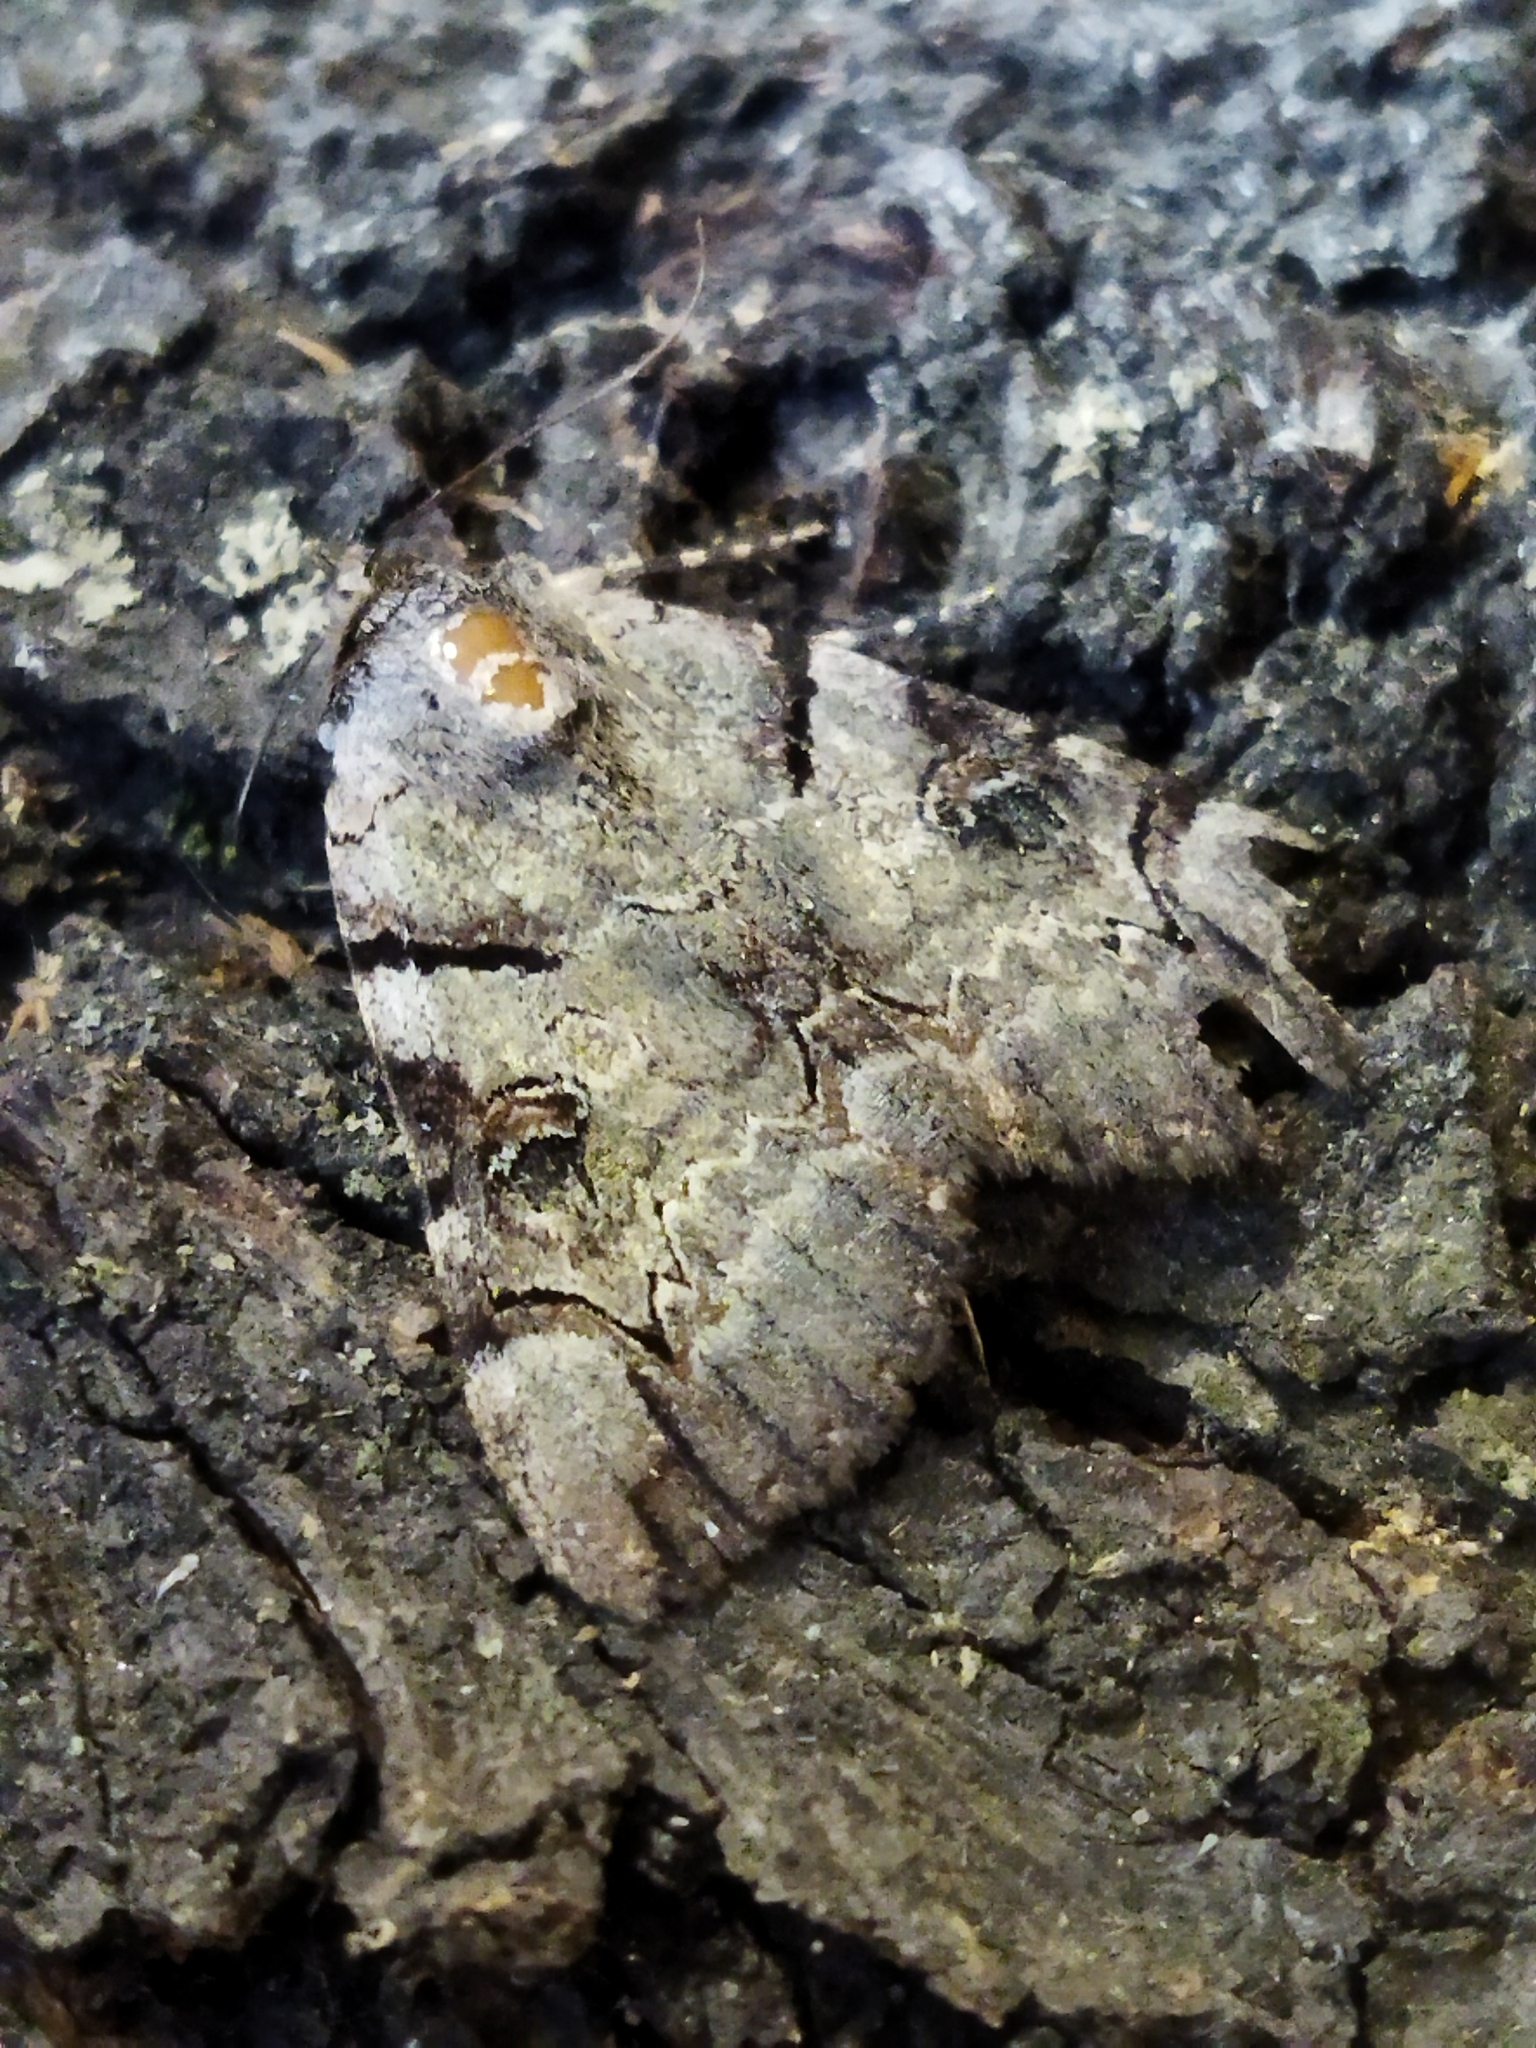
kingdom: Animalia
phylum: Arthropoda
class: Insecta
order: Lepidoptera
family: Erebidae
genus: Catocala
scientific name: Catocala hymenaea
